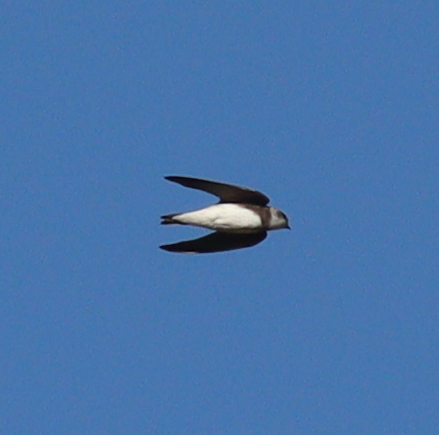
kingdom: Animalia
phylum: Chordata
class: Aves
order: Passeriformes
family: Hirundinidae
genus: Riparia
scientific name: Riparia riparia
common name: Sand martin
